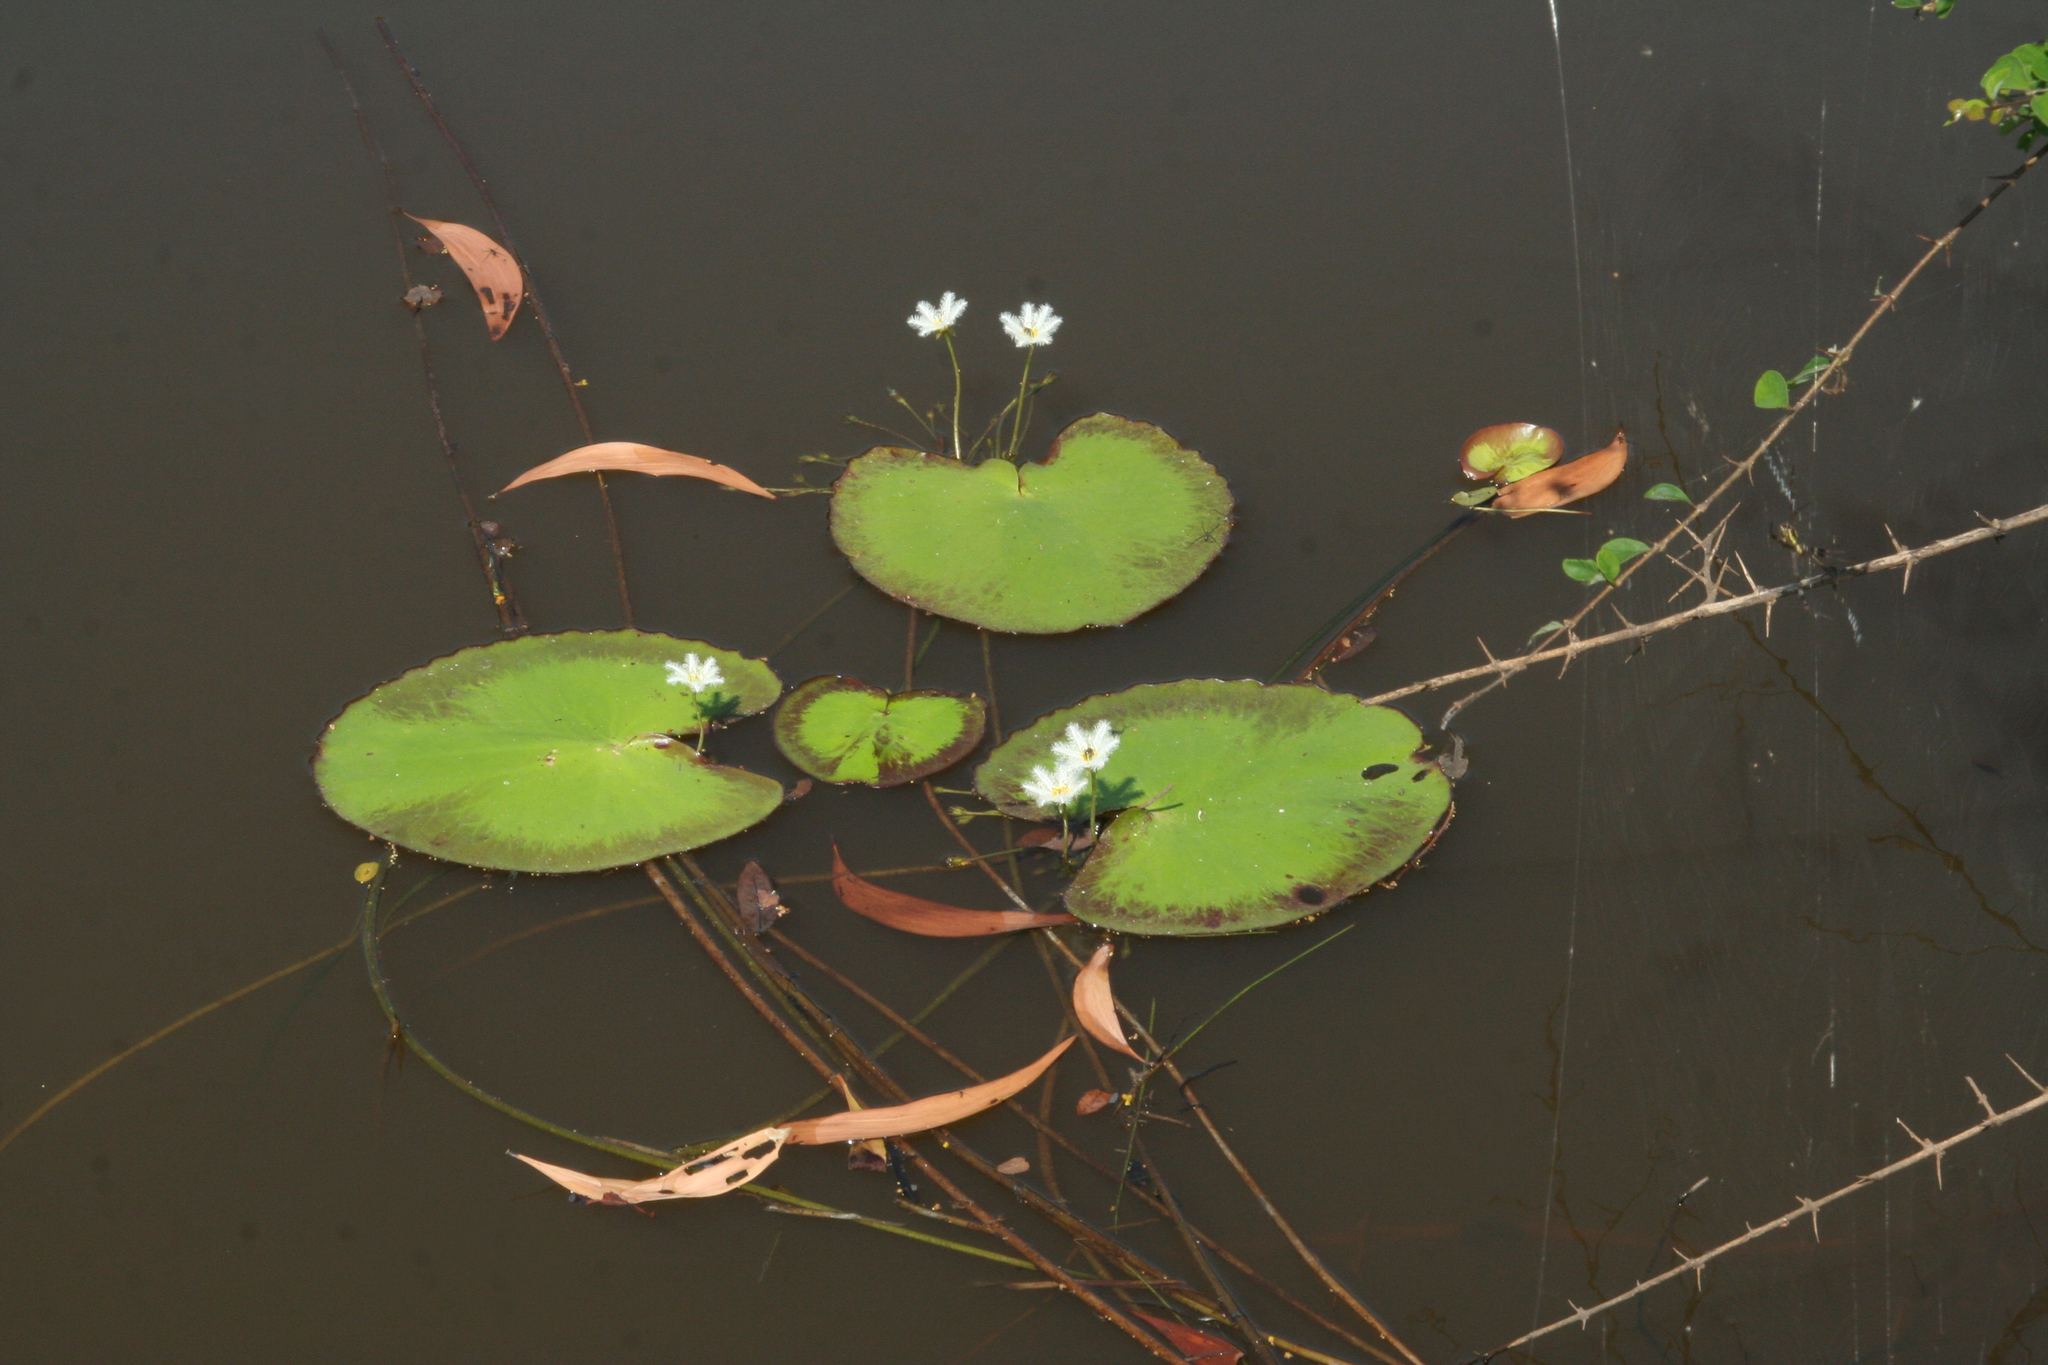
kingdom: Plantae
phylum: Tracheophyta
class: Magnoliopsida
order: Asterales
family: Menyanthaceae
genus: Nymphoides
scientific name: Nymphoides indica
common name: Water-snowflake
